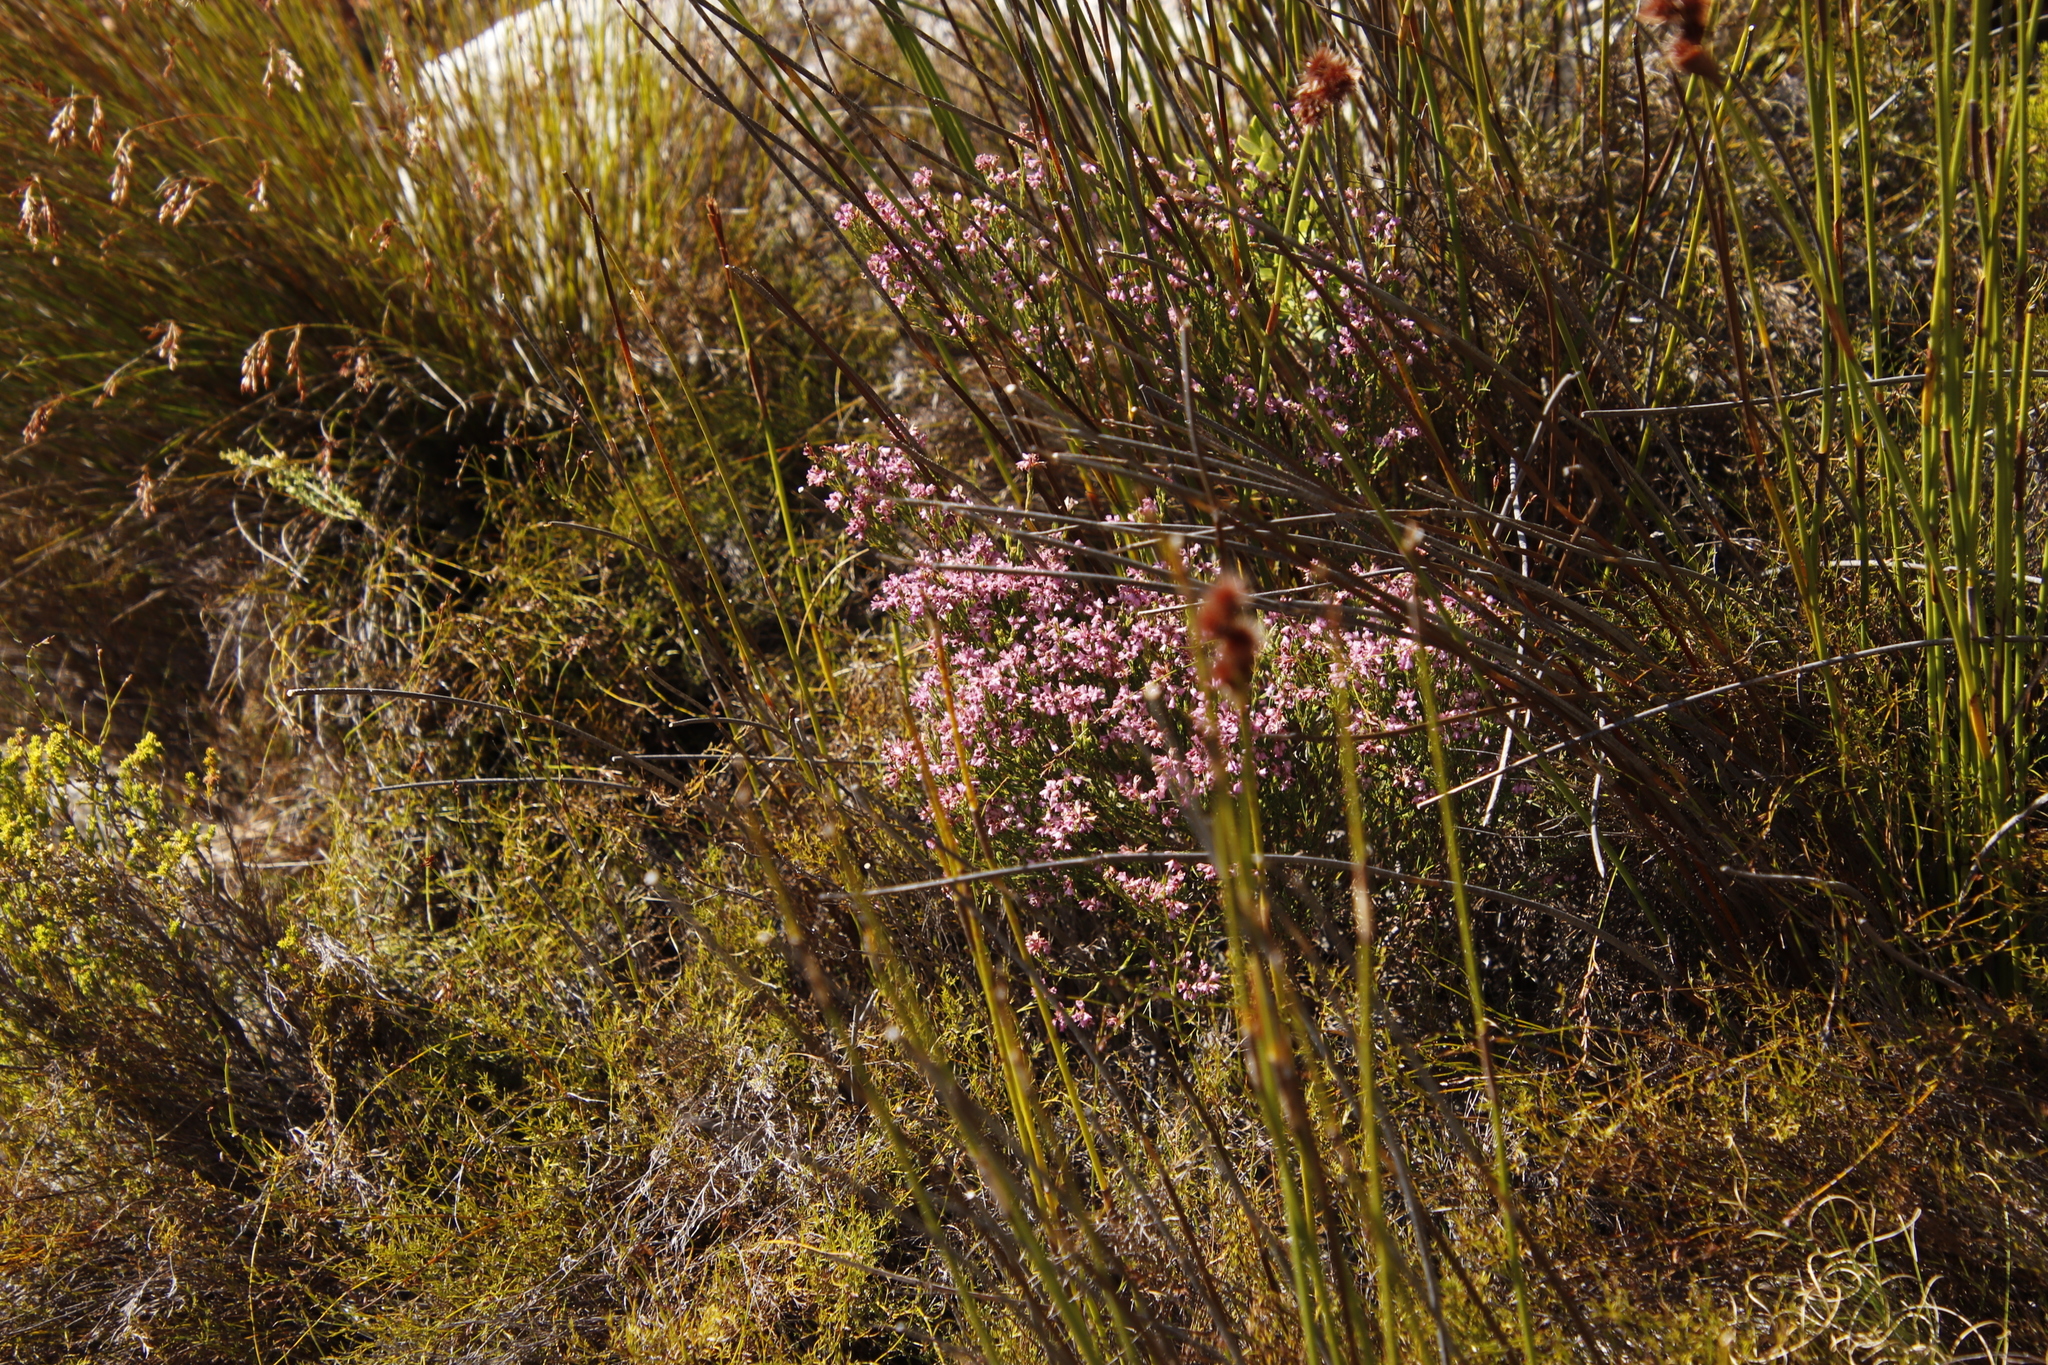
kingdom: Plantae
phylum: Tracheophyta
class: Magnoliopsida
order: Ericales
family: Ericaceae
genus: Erica
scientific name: Erica plumigera
